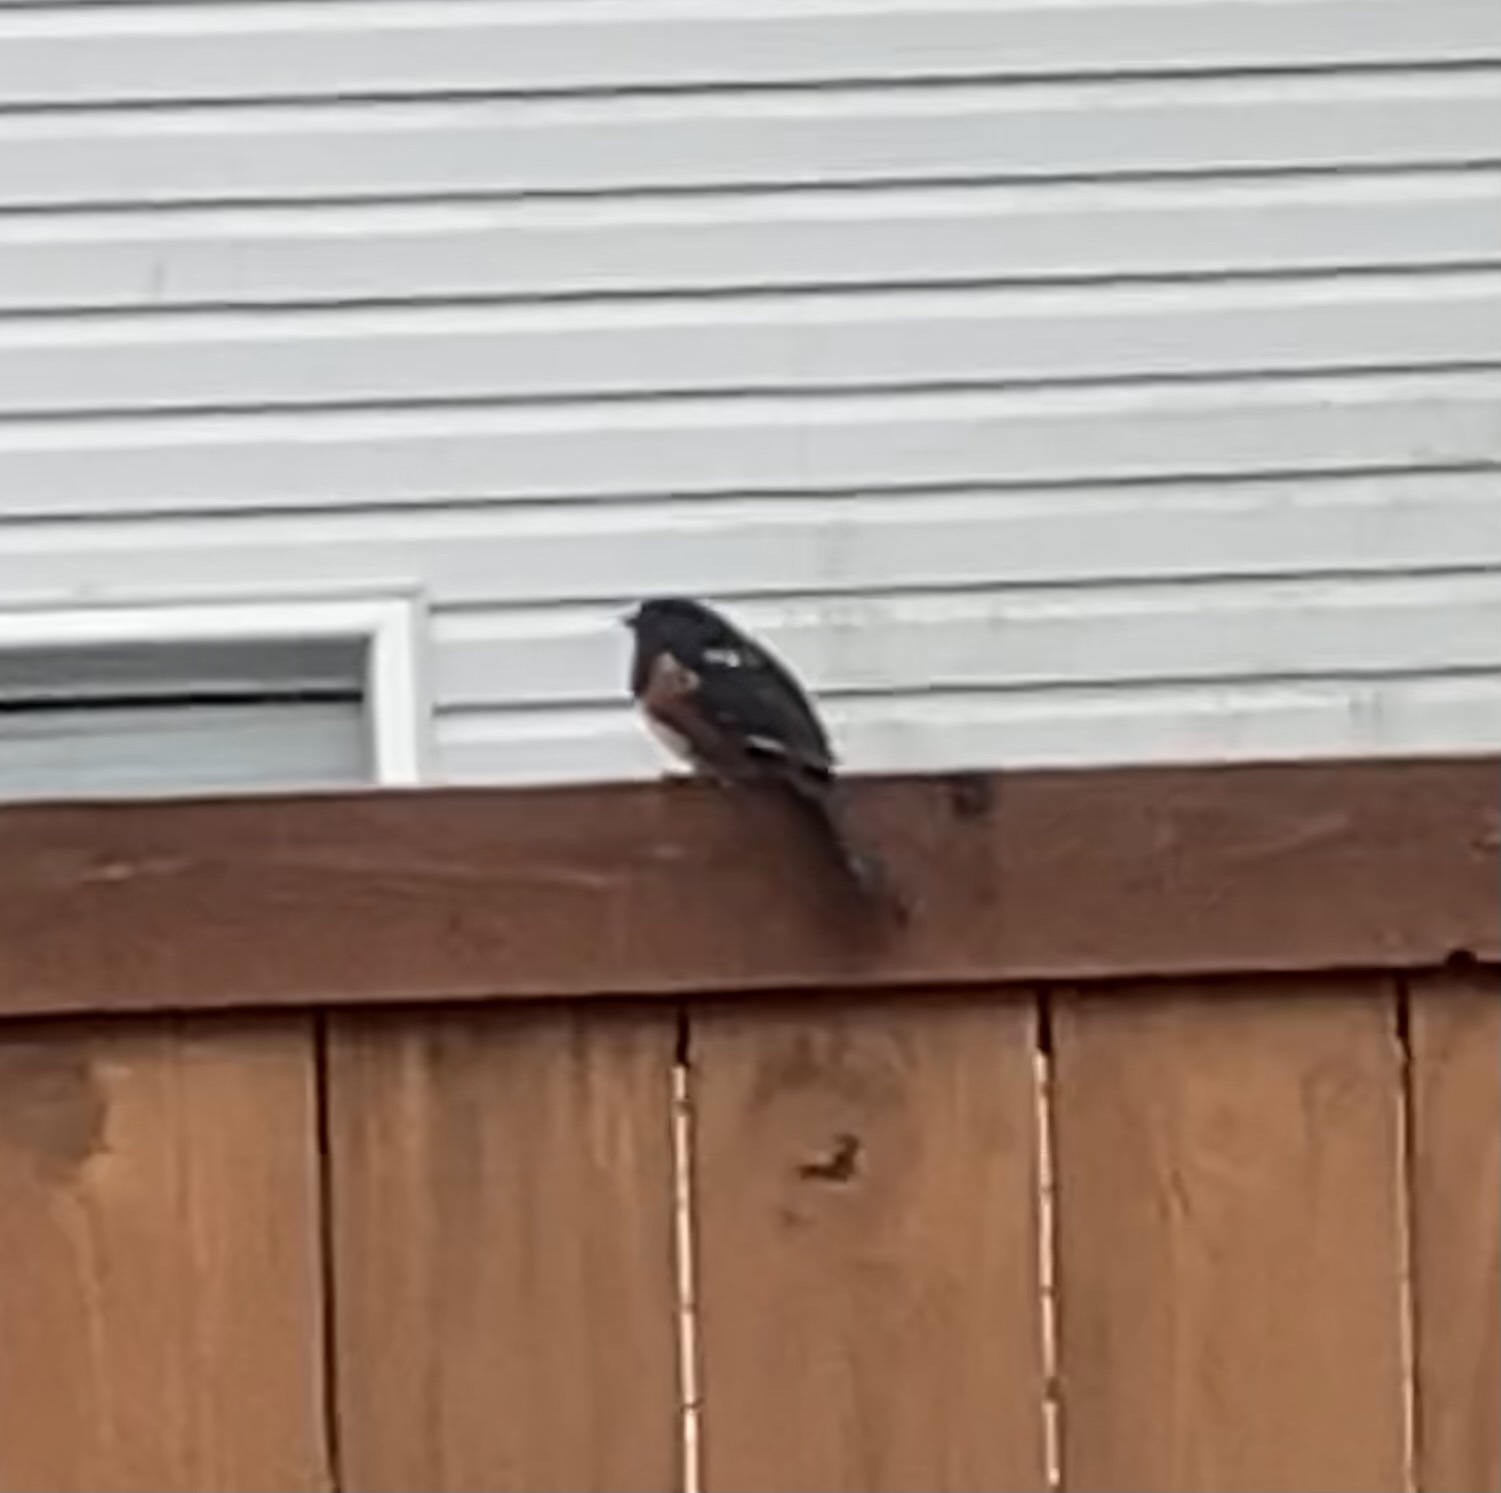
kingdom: Animalia
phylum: Chordata
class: Aves
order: Passeriformes
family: Passerellidae
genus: Pipilo
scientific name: Pipilo maculatus
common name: Spotted towhee
